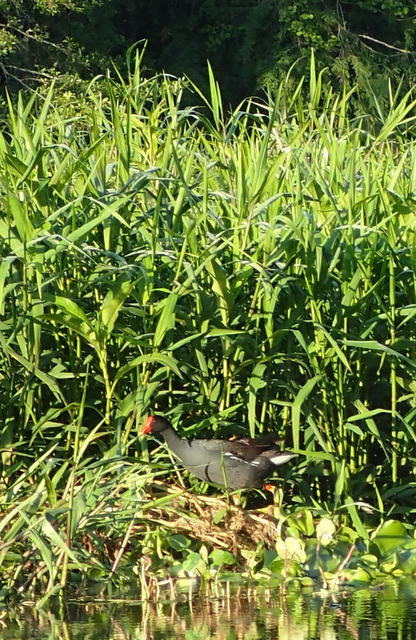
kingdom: Animalia
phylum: Chordata
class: Aves
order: Gruiformes
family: Rallidae
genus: Gallinula
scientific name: Gallinula chloropus
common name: Common moorhen
